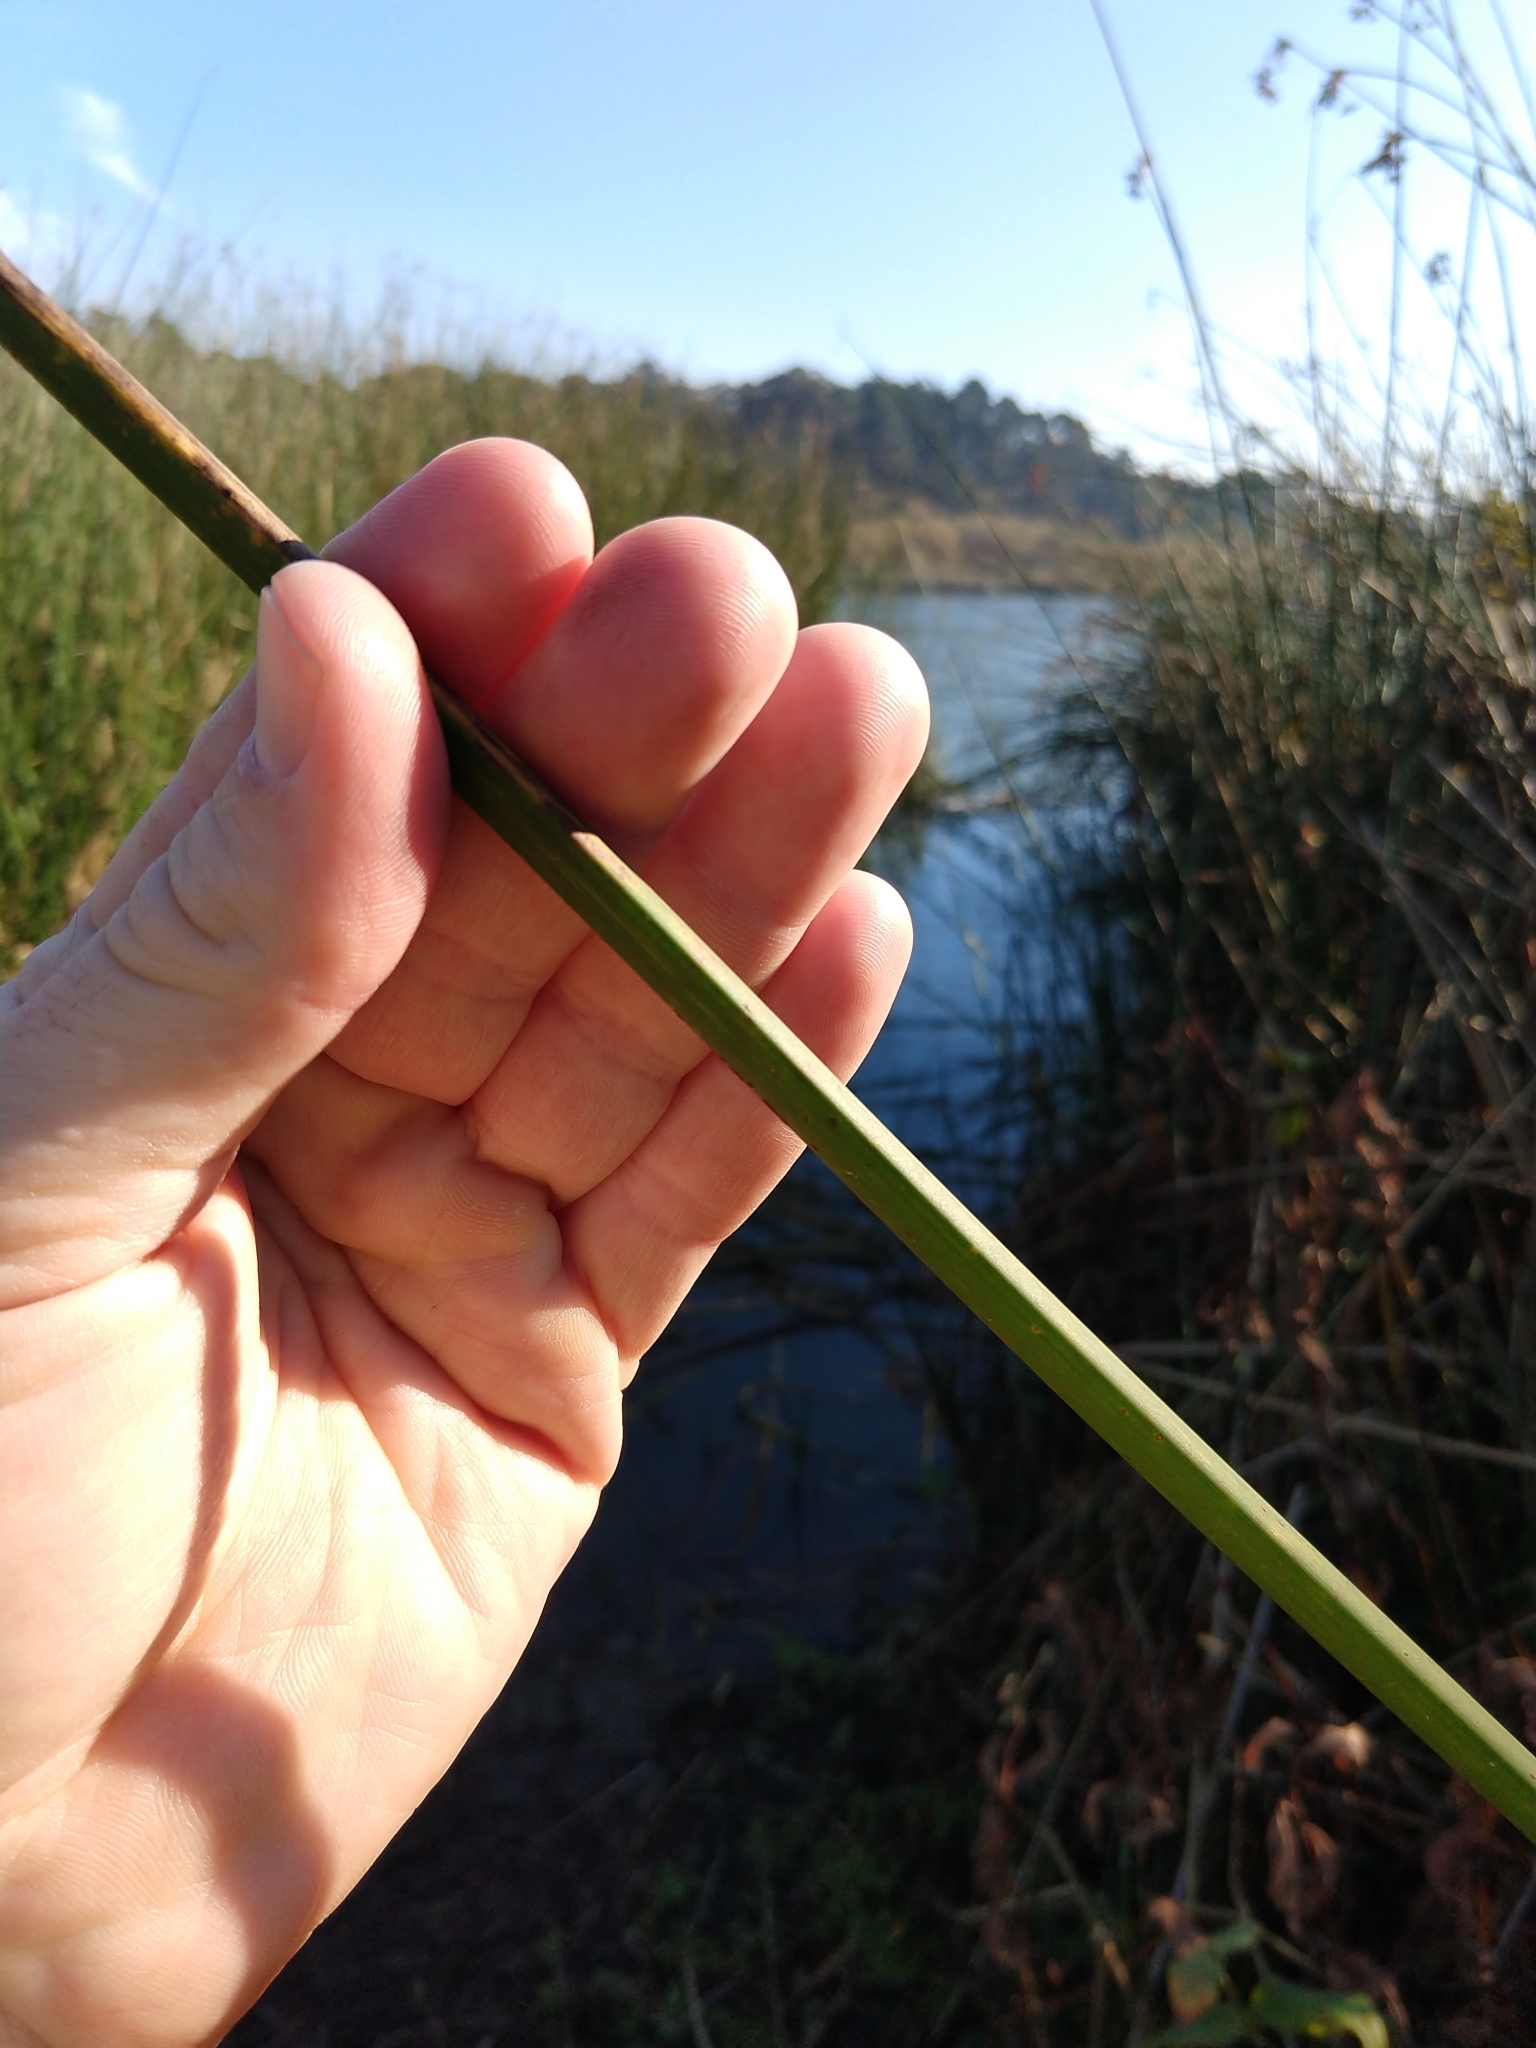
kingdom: Plantae
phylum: Tracheophyta
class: Liliopsida
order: Poales
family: Cyperaceae
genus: Schoenoplectus
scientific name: Schoenoplectus californicus
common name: California bulrush
